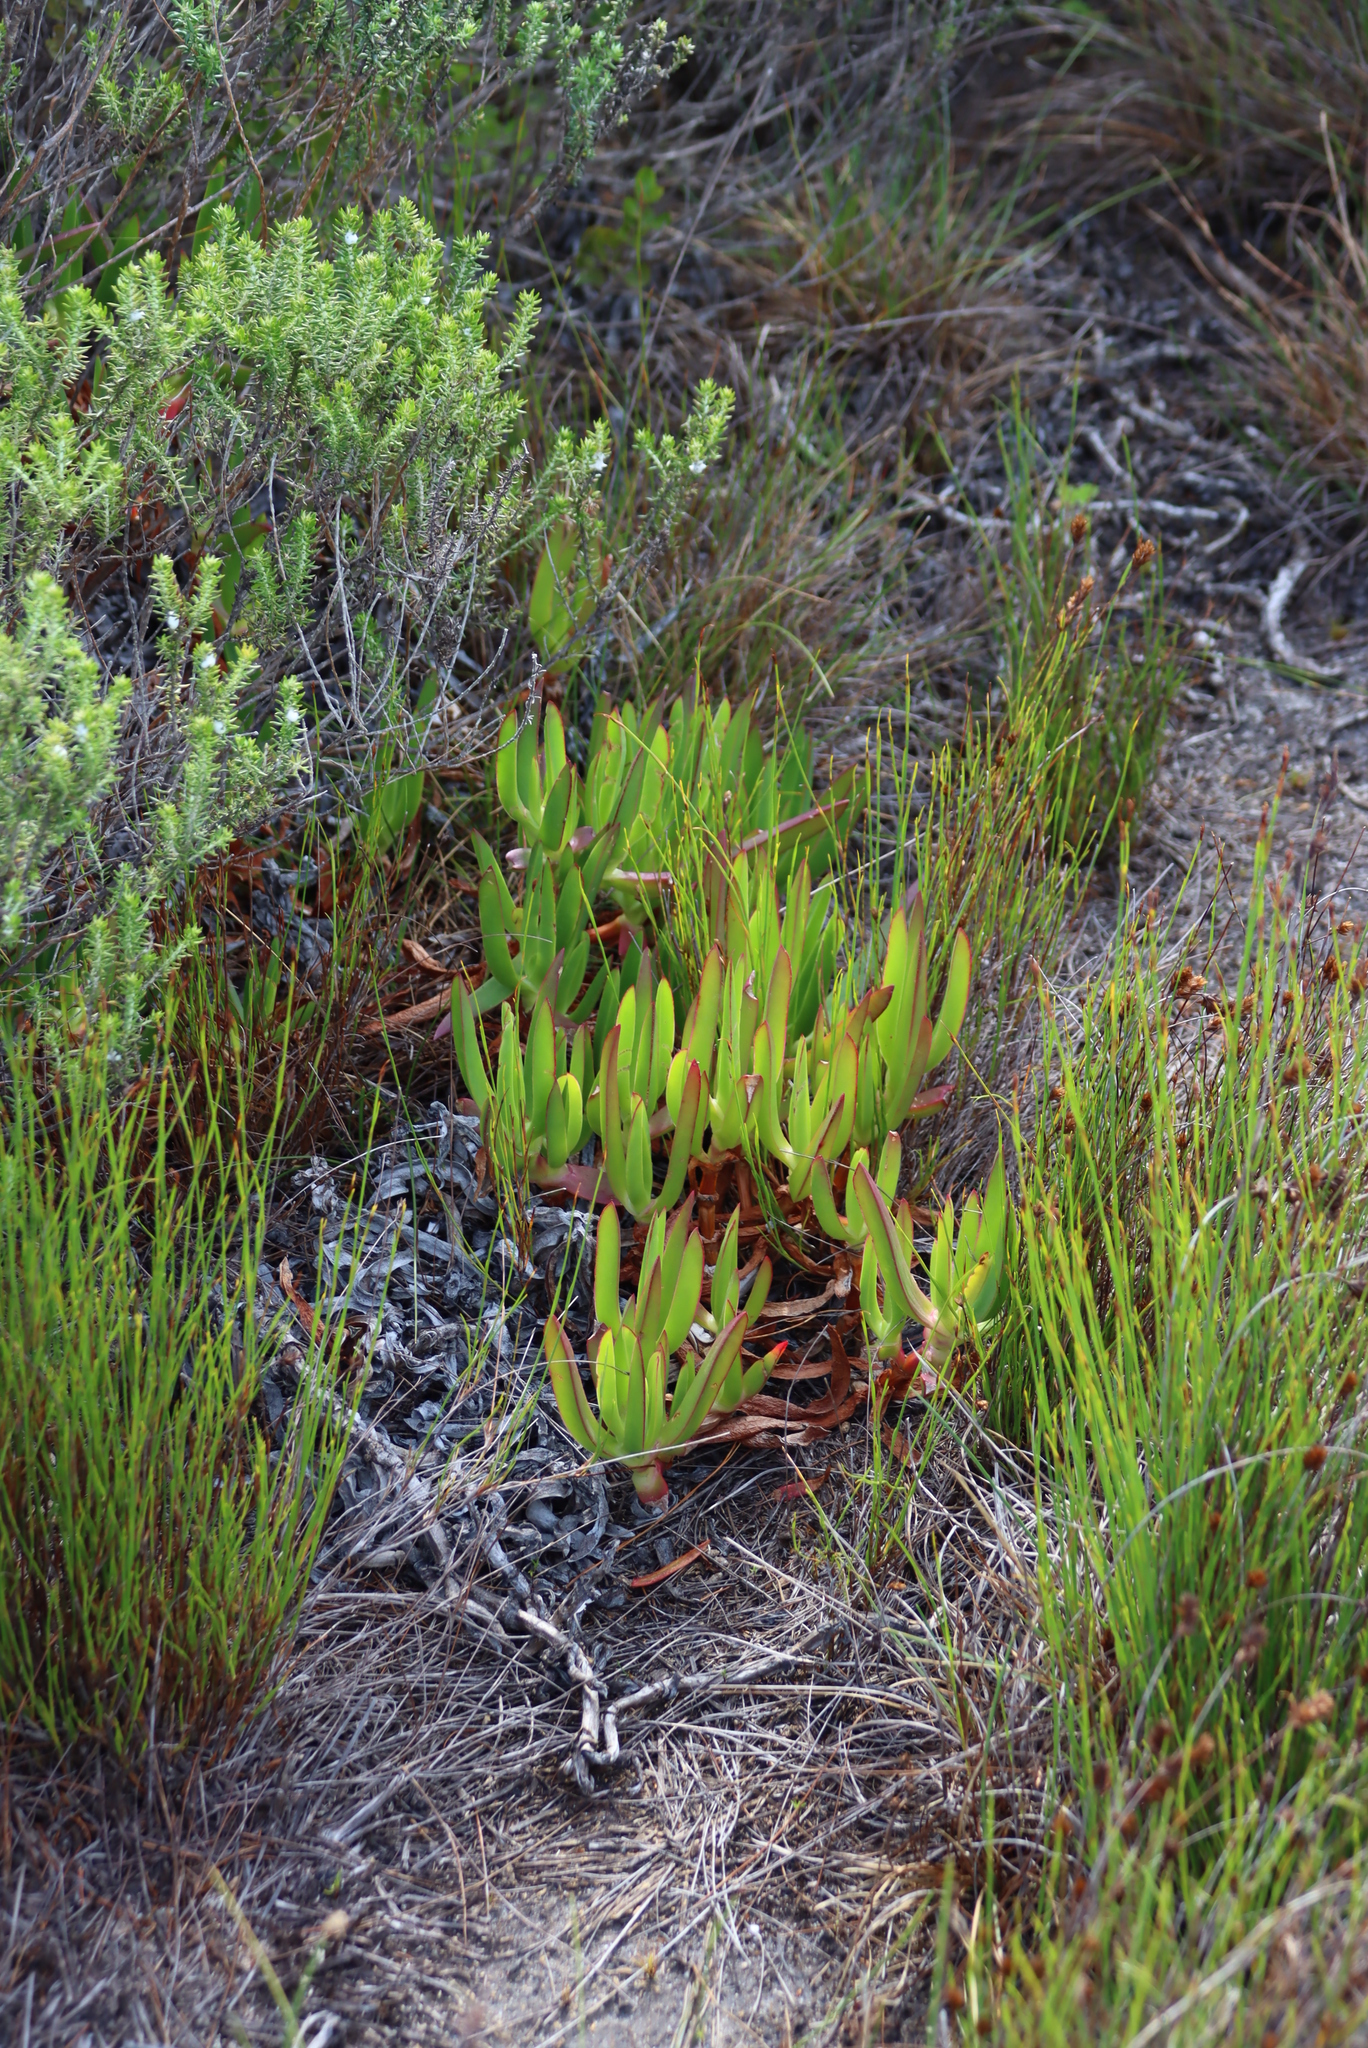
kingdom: Plantae
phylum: Tracheophyta
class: Magnoliopsida
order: Caryophyllales
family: Aizoaceae
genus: Carpobrotus
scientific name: Carpobrotus edulis
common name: Hottentot-fig
